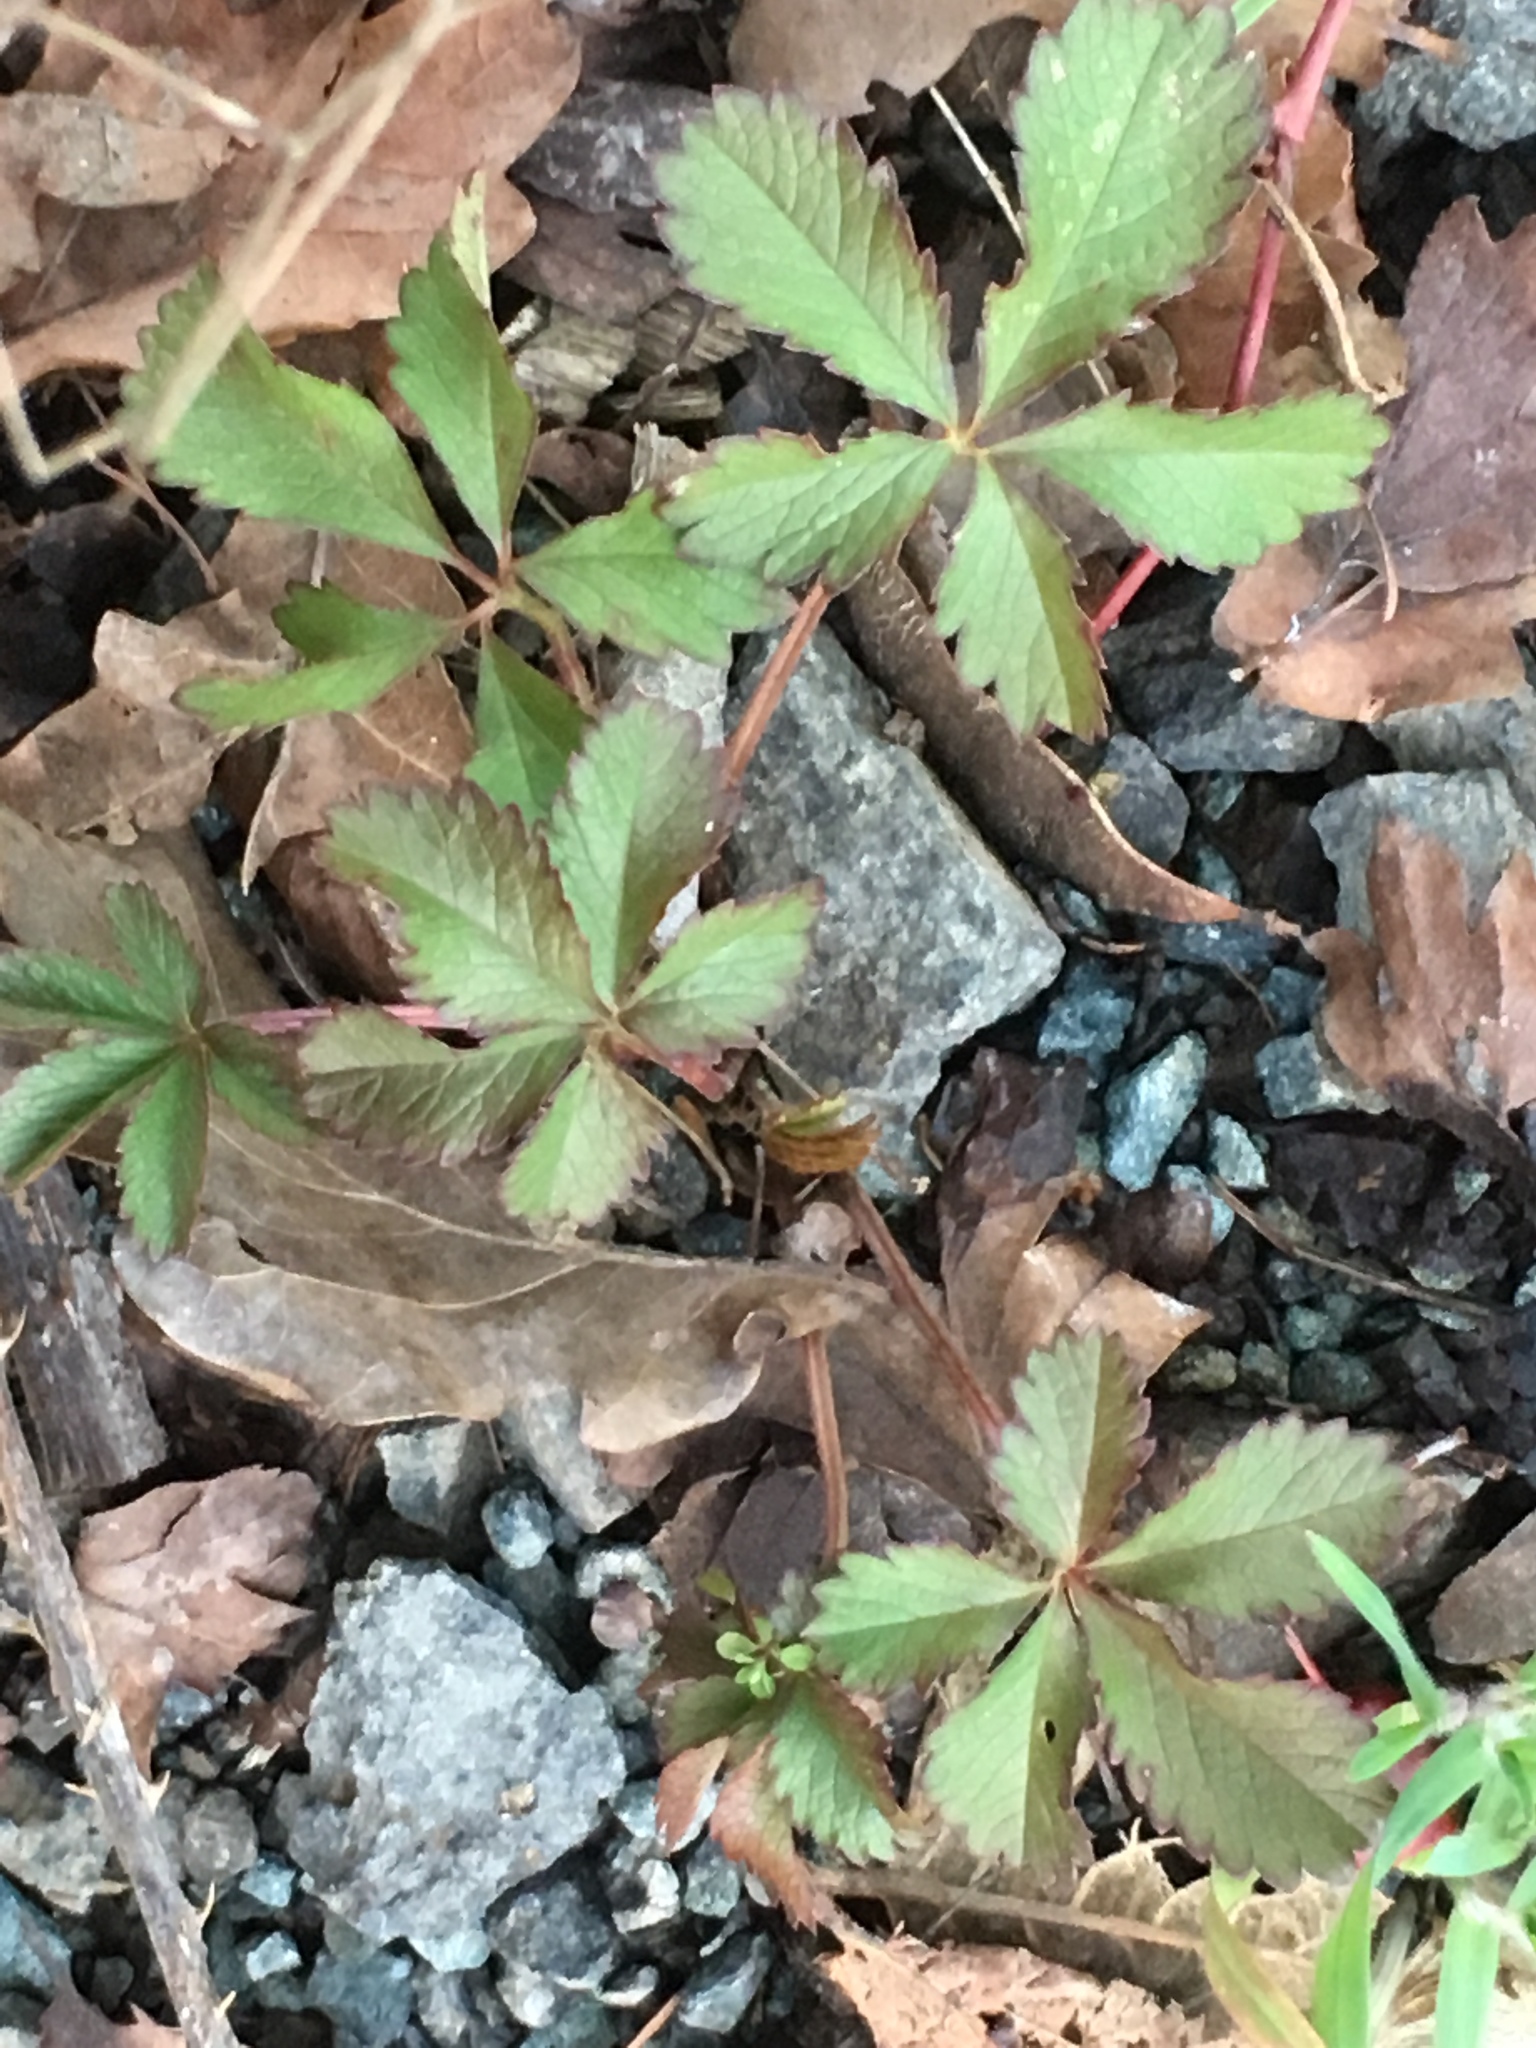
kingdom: Plantae
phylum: Tracheophyta
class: Magnoliopsida
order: Rosales
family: Rosaceae
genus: Potentilla
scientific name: Potentilla reptans
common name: Creeping cinquefoil
